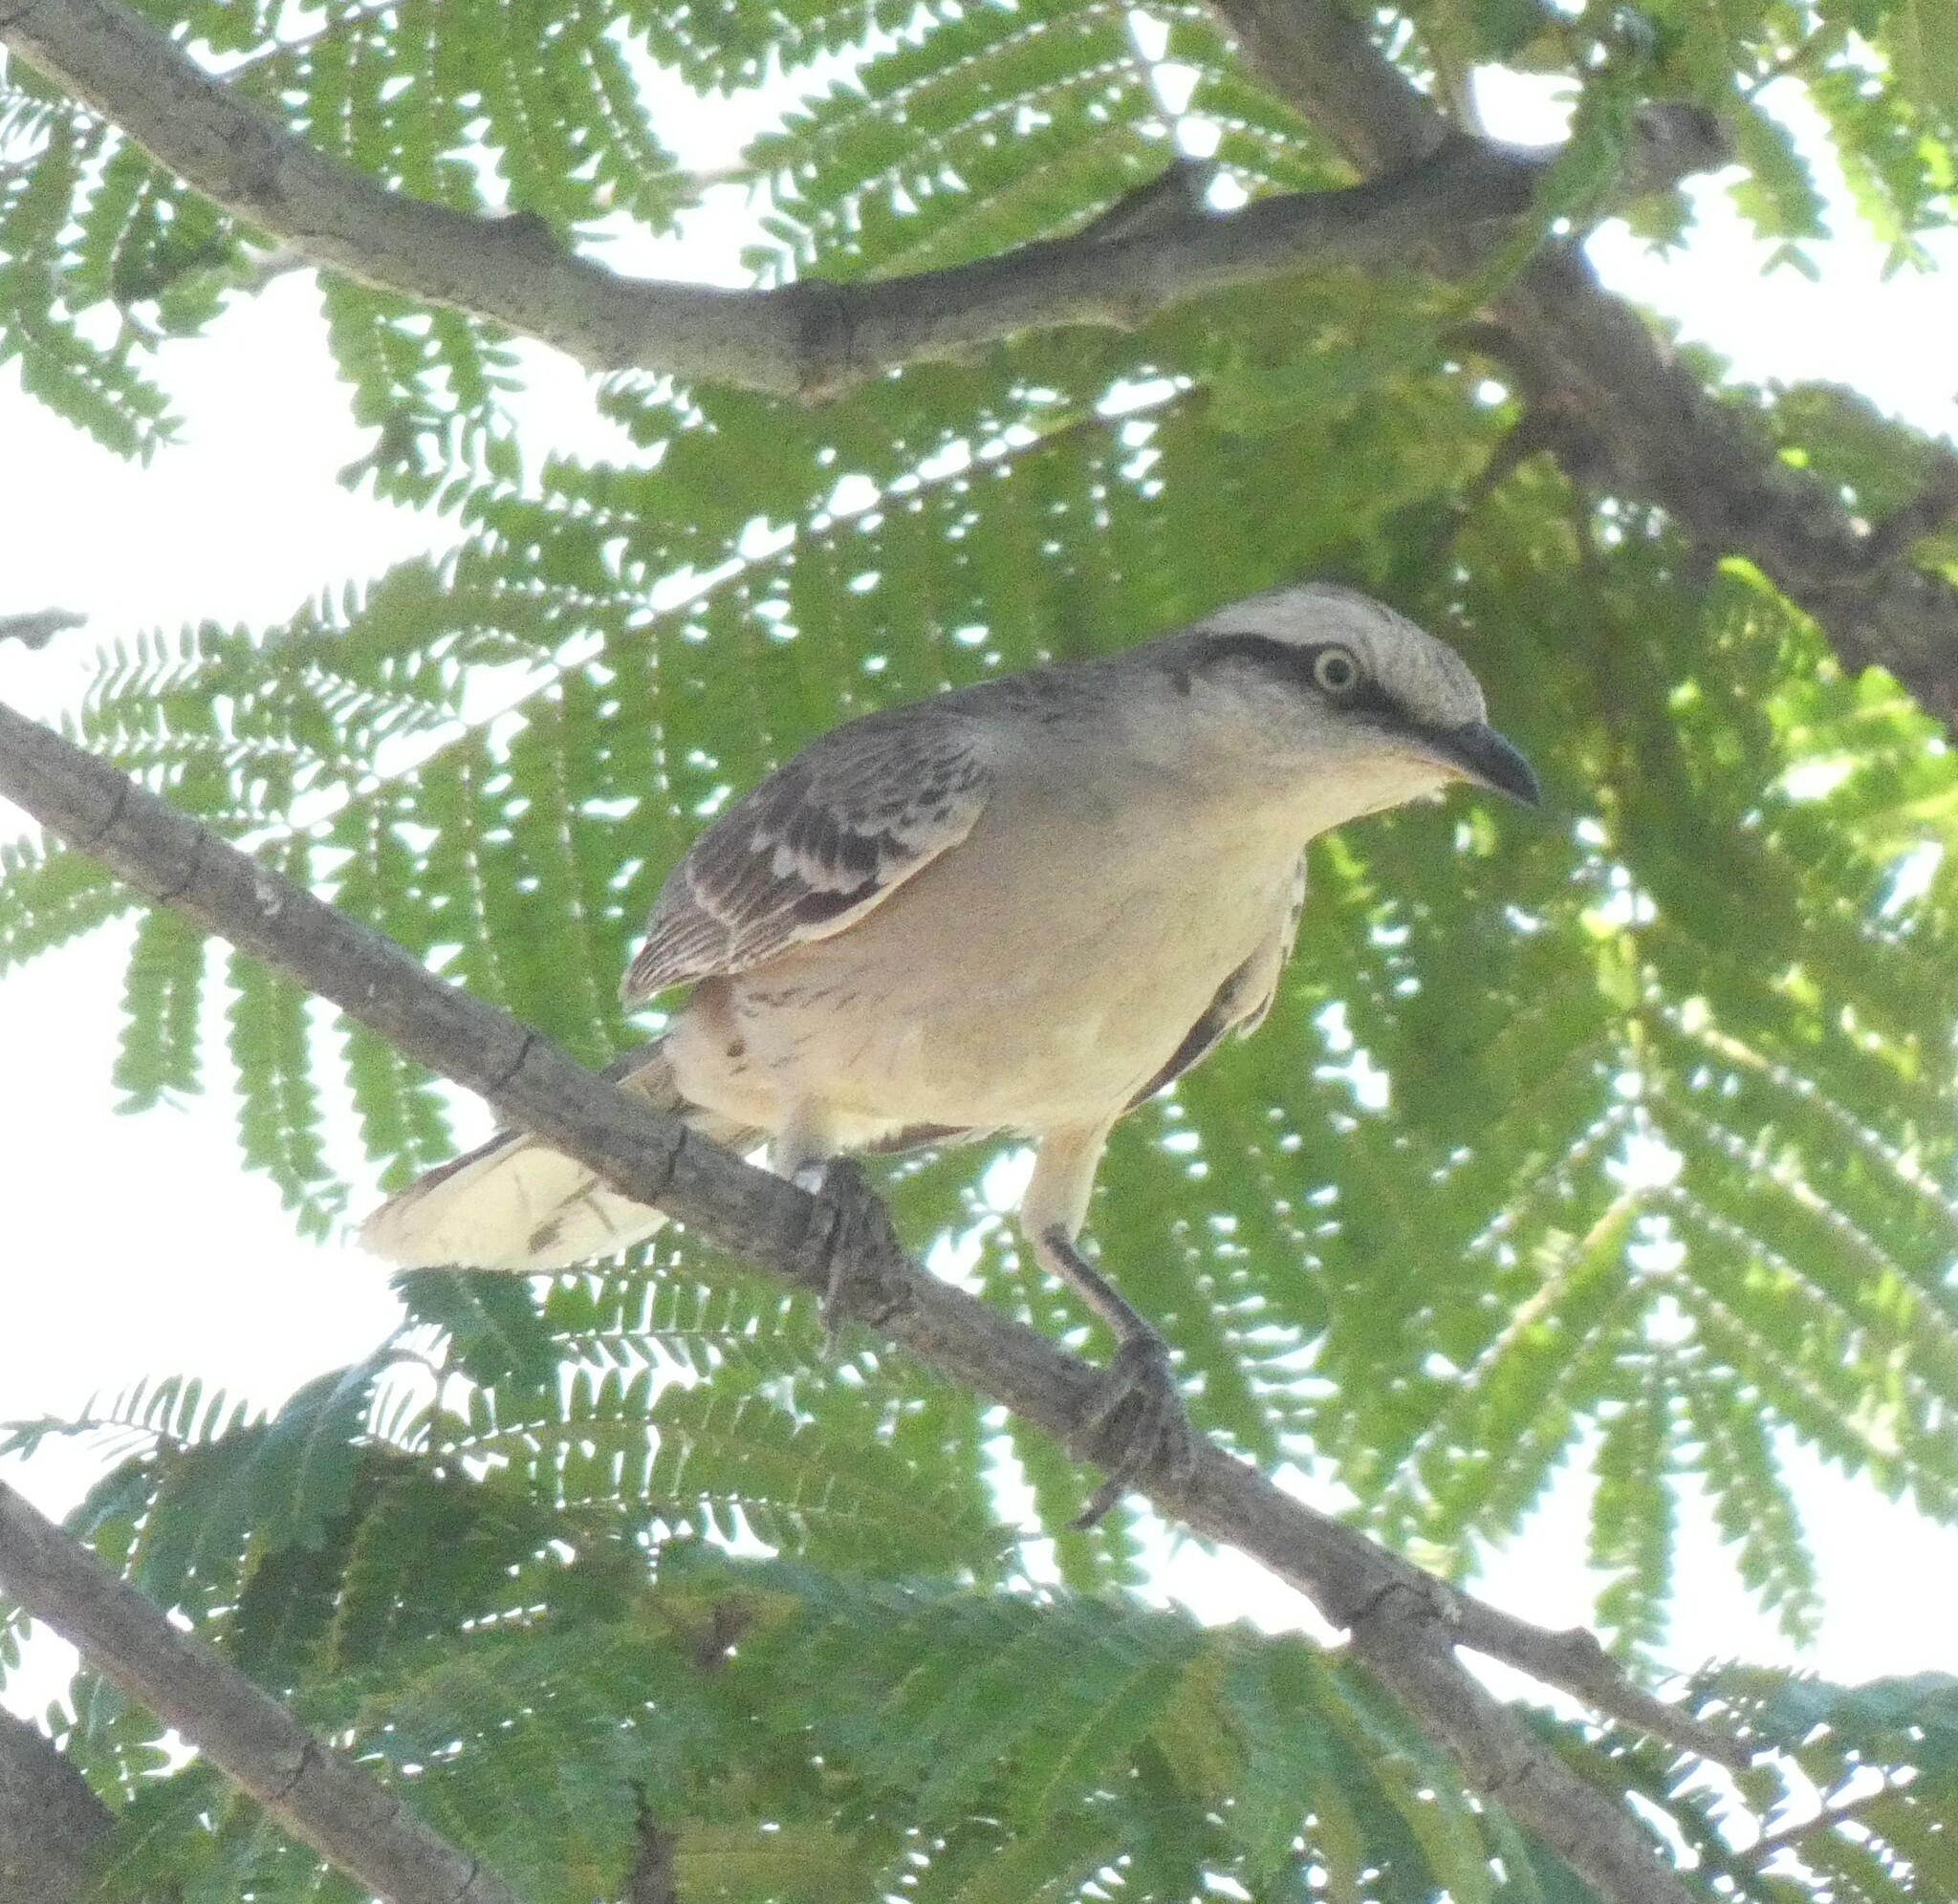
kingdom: Animalia
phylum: Chordata
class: Aves
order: Passeriformes
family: Mimidae
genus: Mimus
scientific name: Mimus saturninus
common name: Chalk-browed mockingbird
